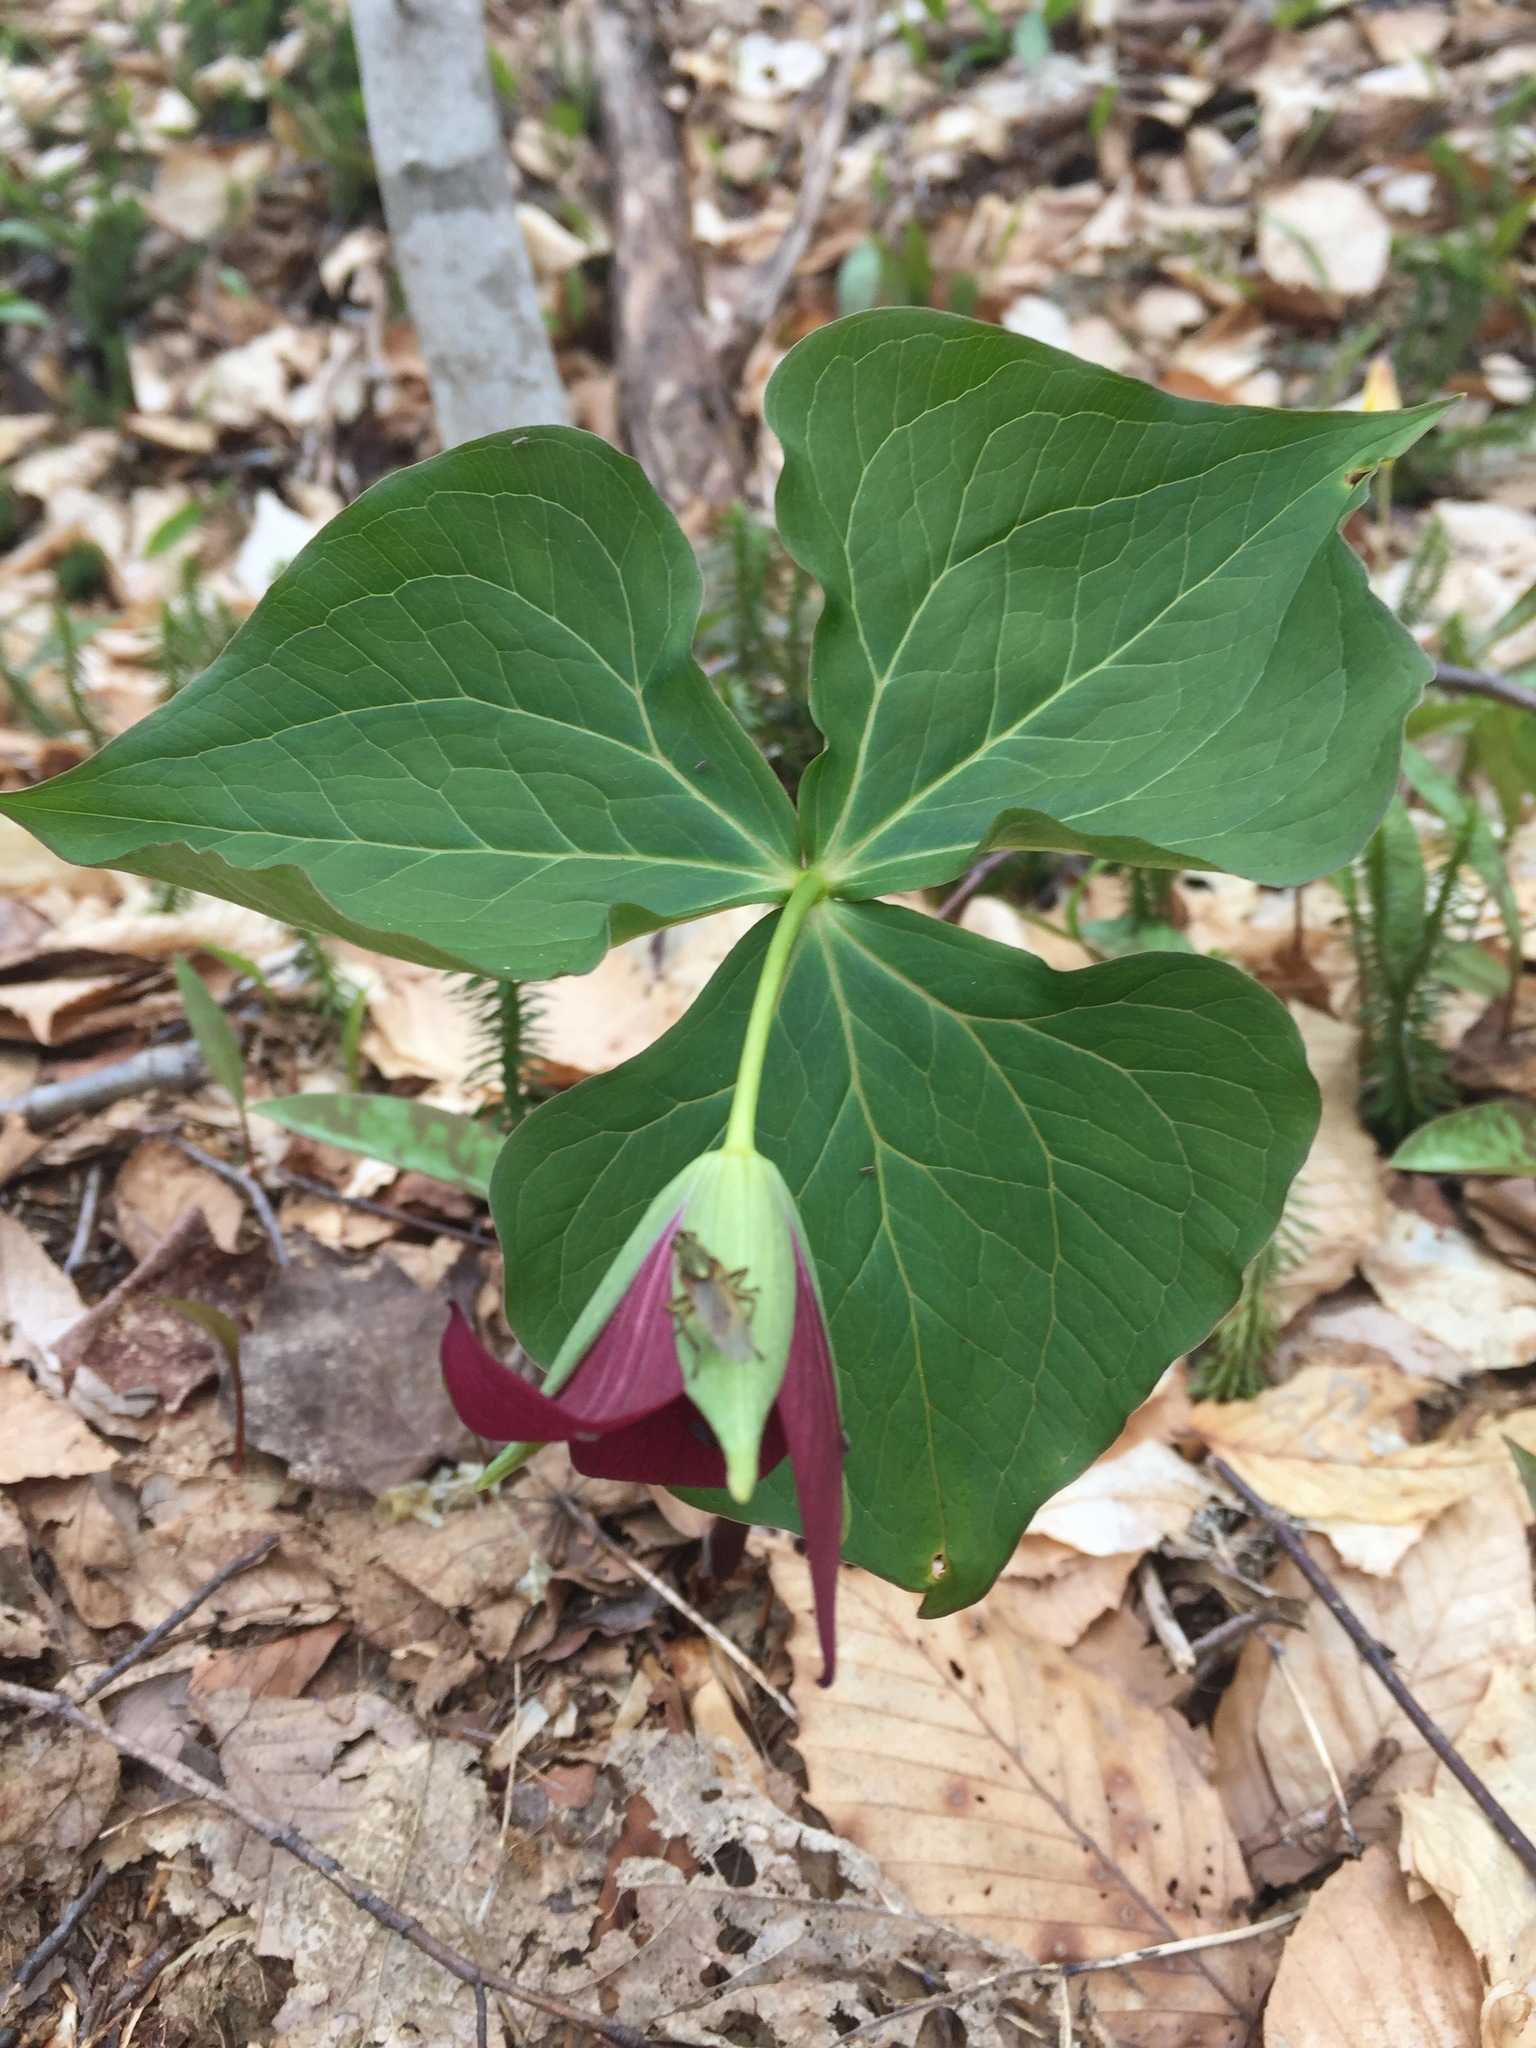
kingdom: Plantae
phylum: Tracheophyta
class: Liliopsida
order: Liliales
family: Melanthiaceae
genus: Trillium
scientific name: Trillium erectum
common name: Purple trillium
